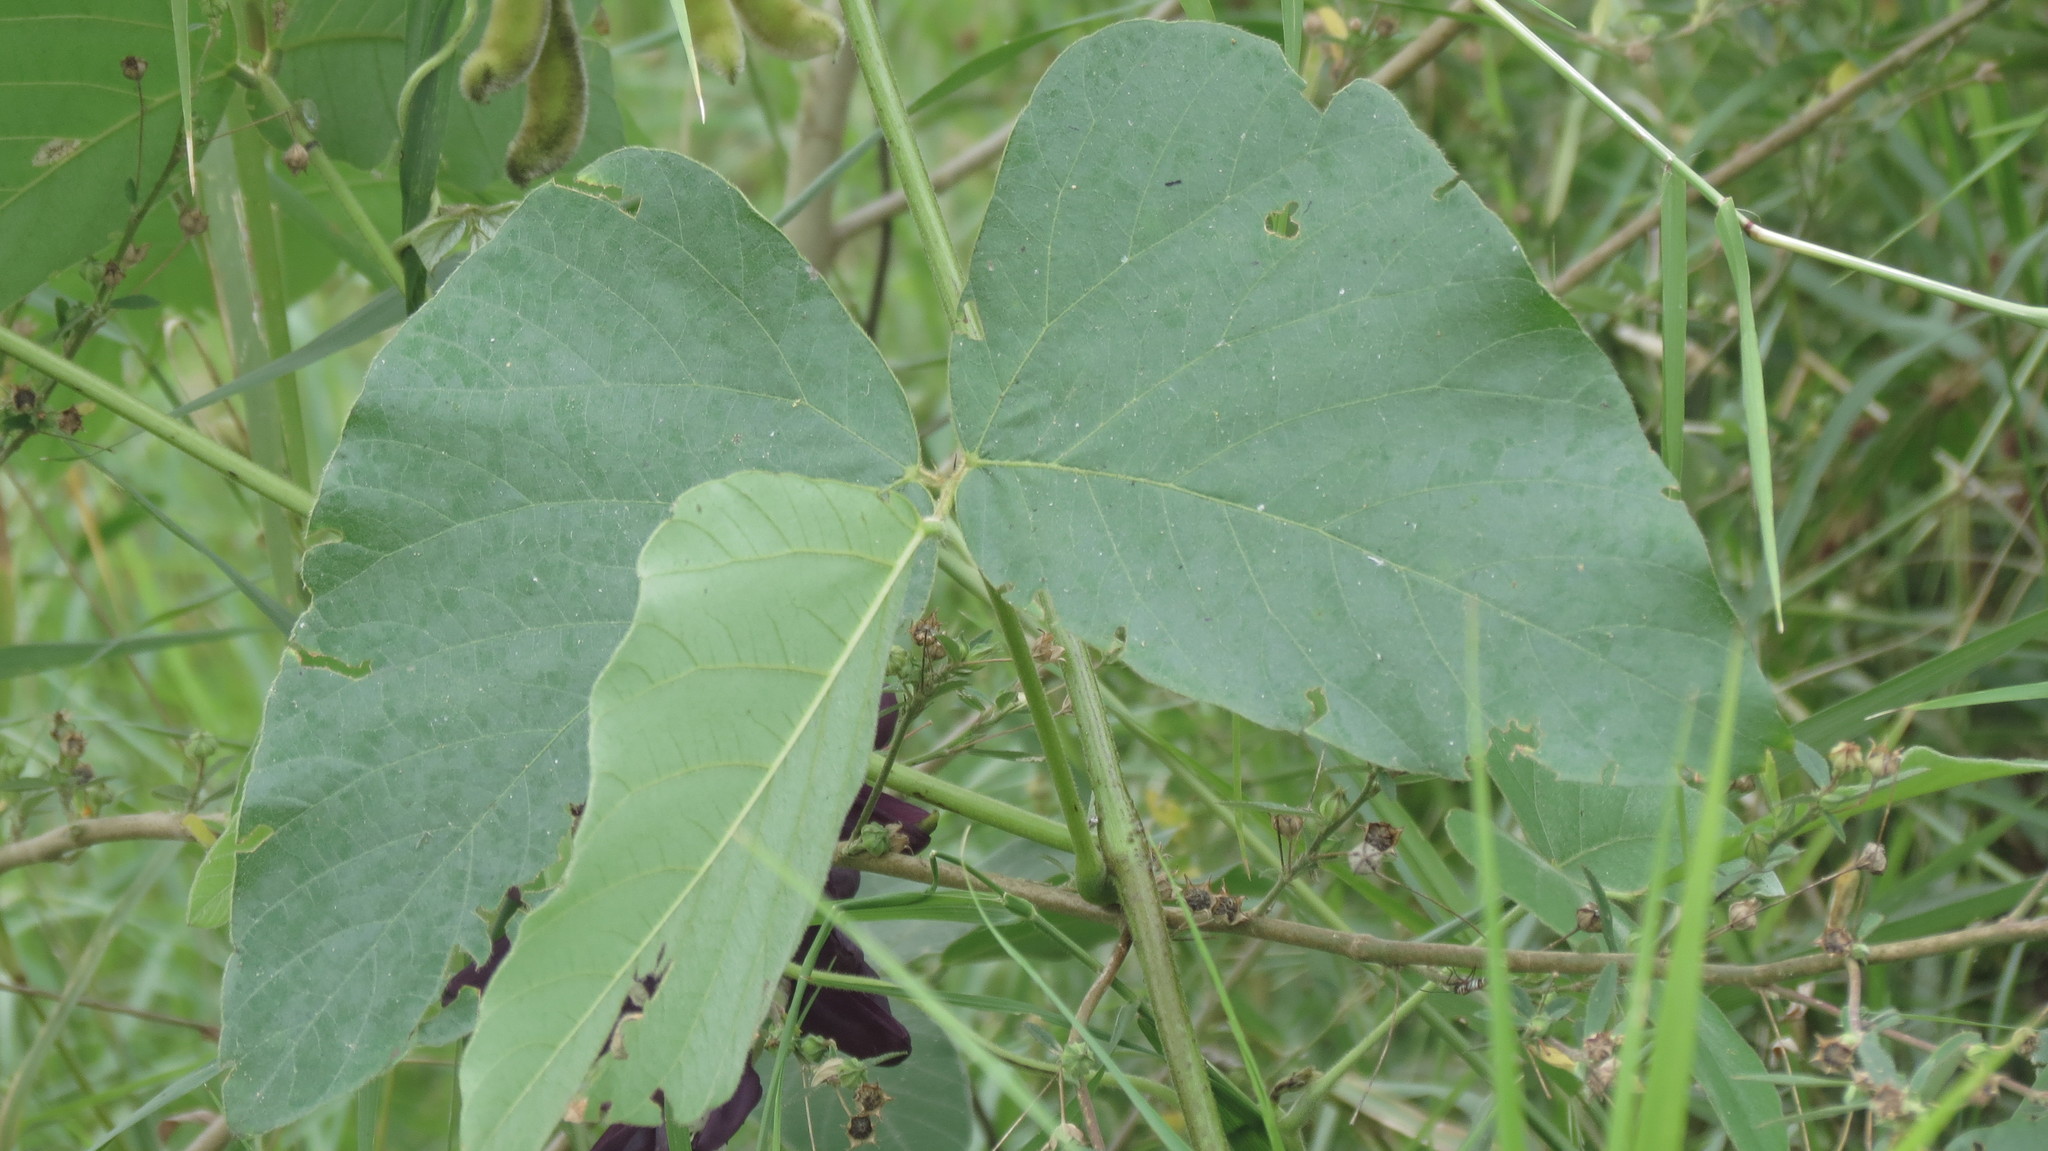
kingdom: Plantae
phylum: Tracheophyta
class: Magnoliopsida
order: Fabales
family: Fabaceae
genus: Mucuna
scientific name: Mucuna pruriens
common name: Cow-itch
